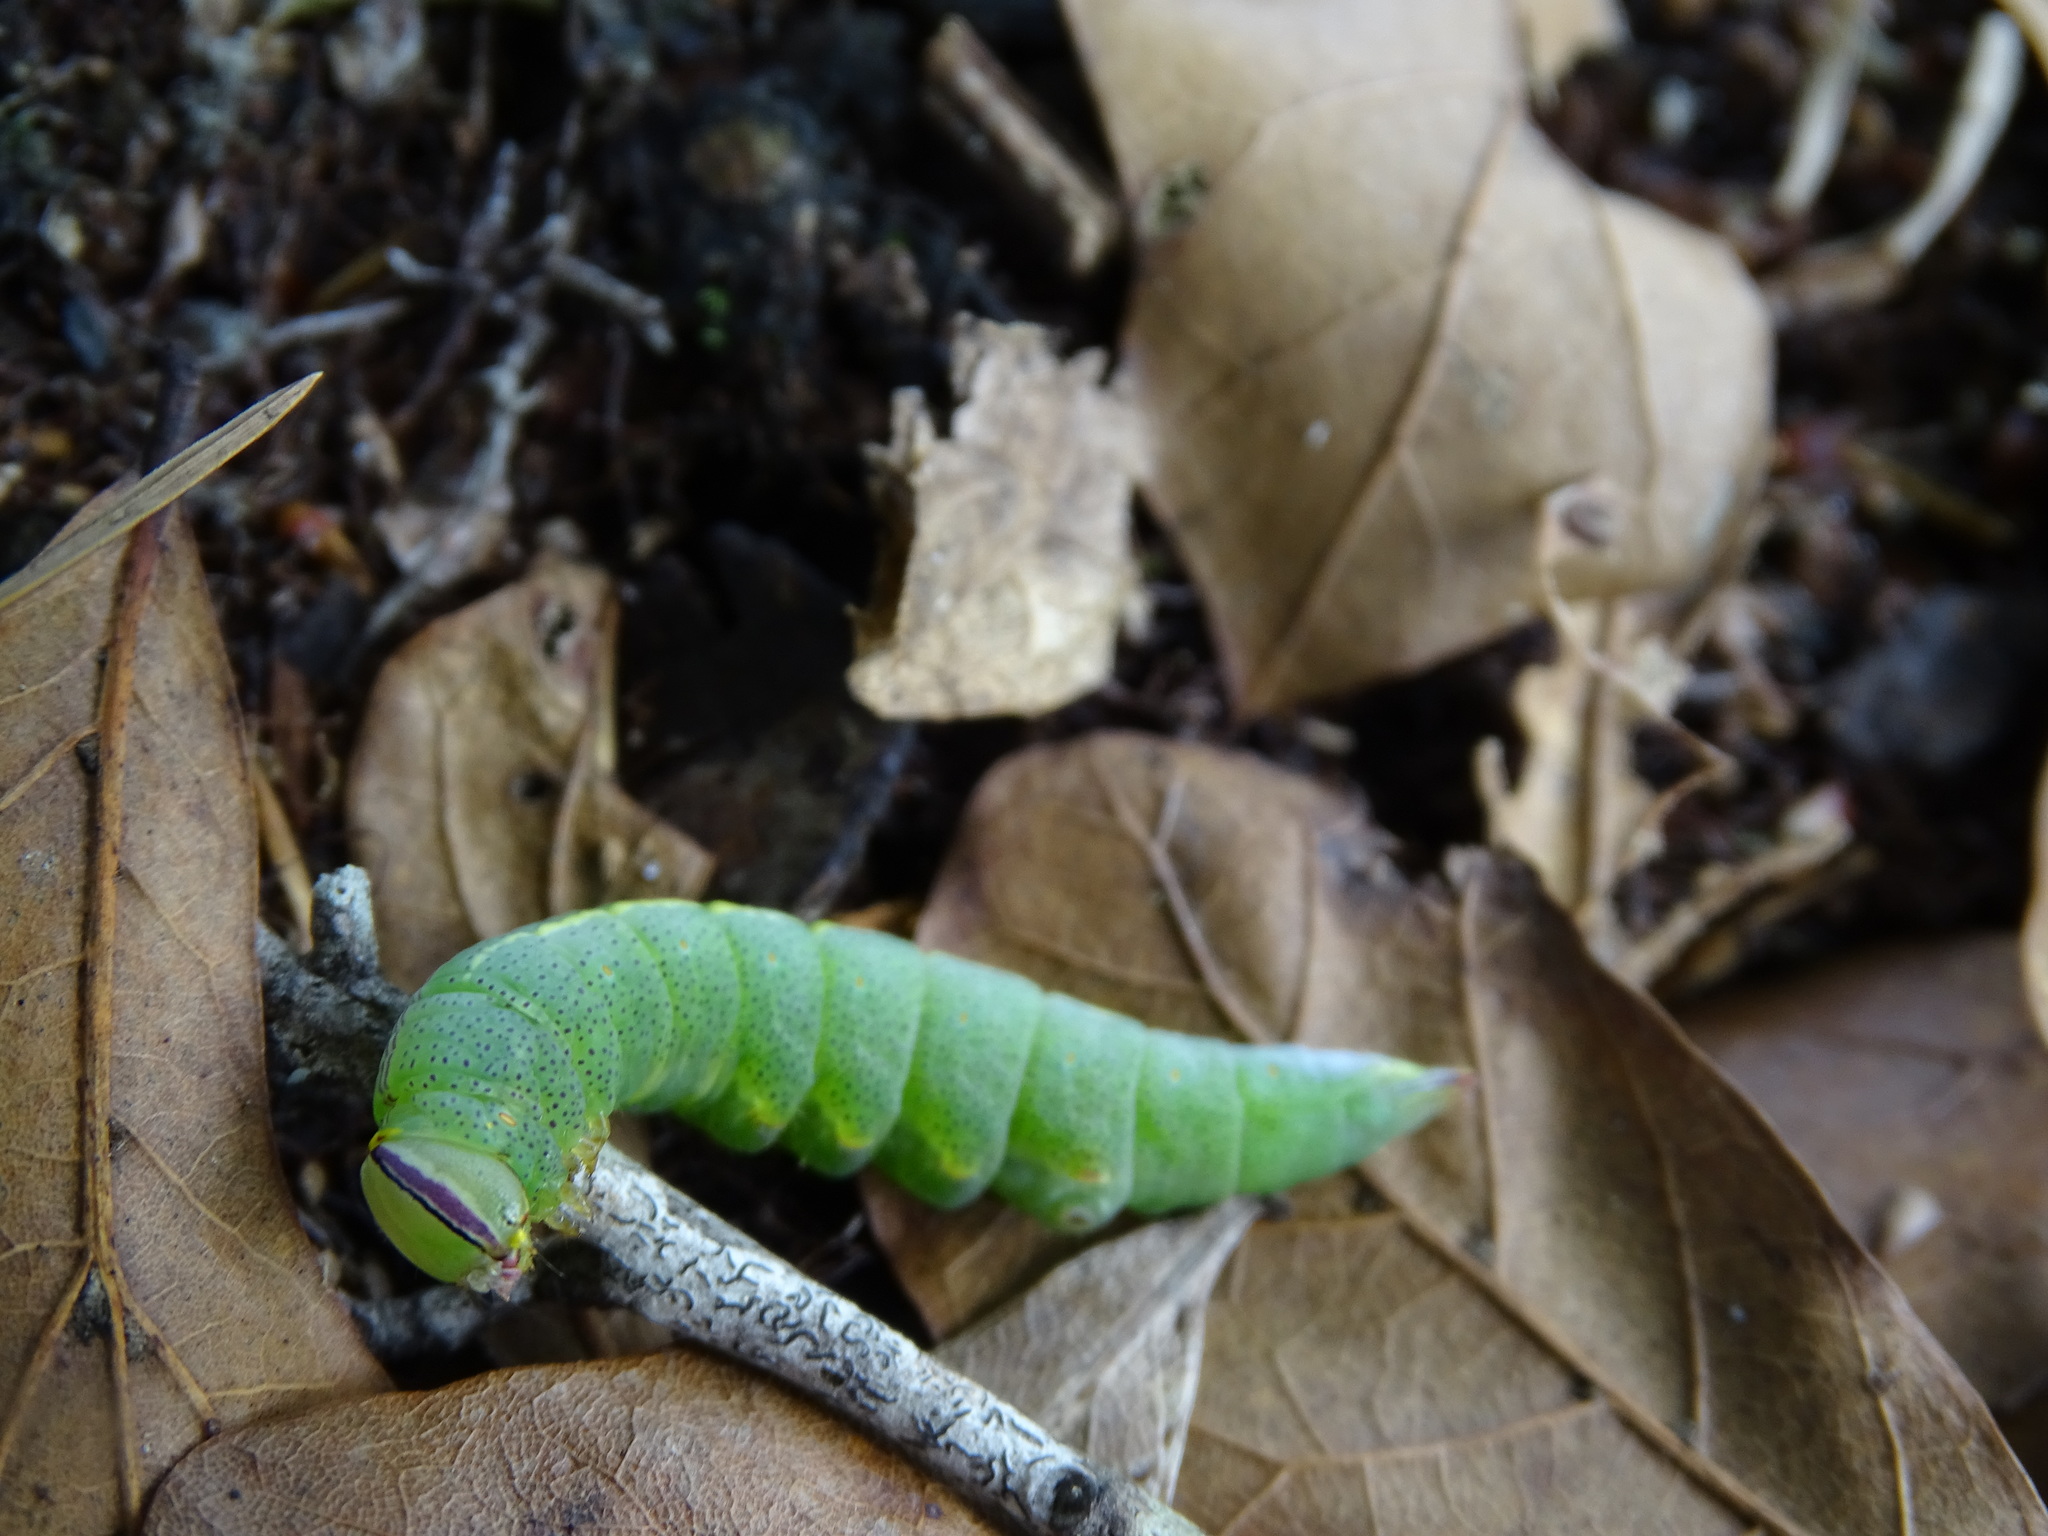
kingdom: Animalia
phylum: Arthropoda
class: Insecta
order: Lepidoptera
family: Notodontidae
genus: Disphragis
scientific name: Disphragis Cecrita guttivitta
